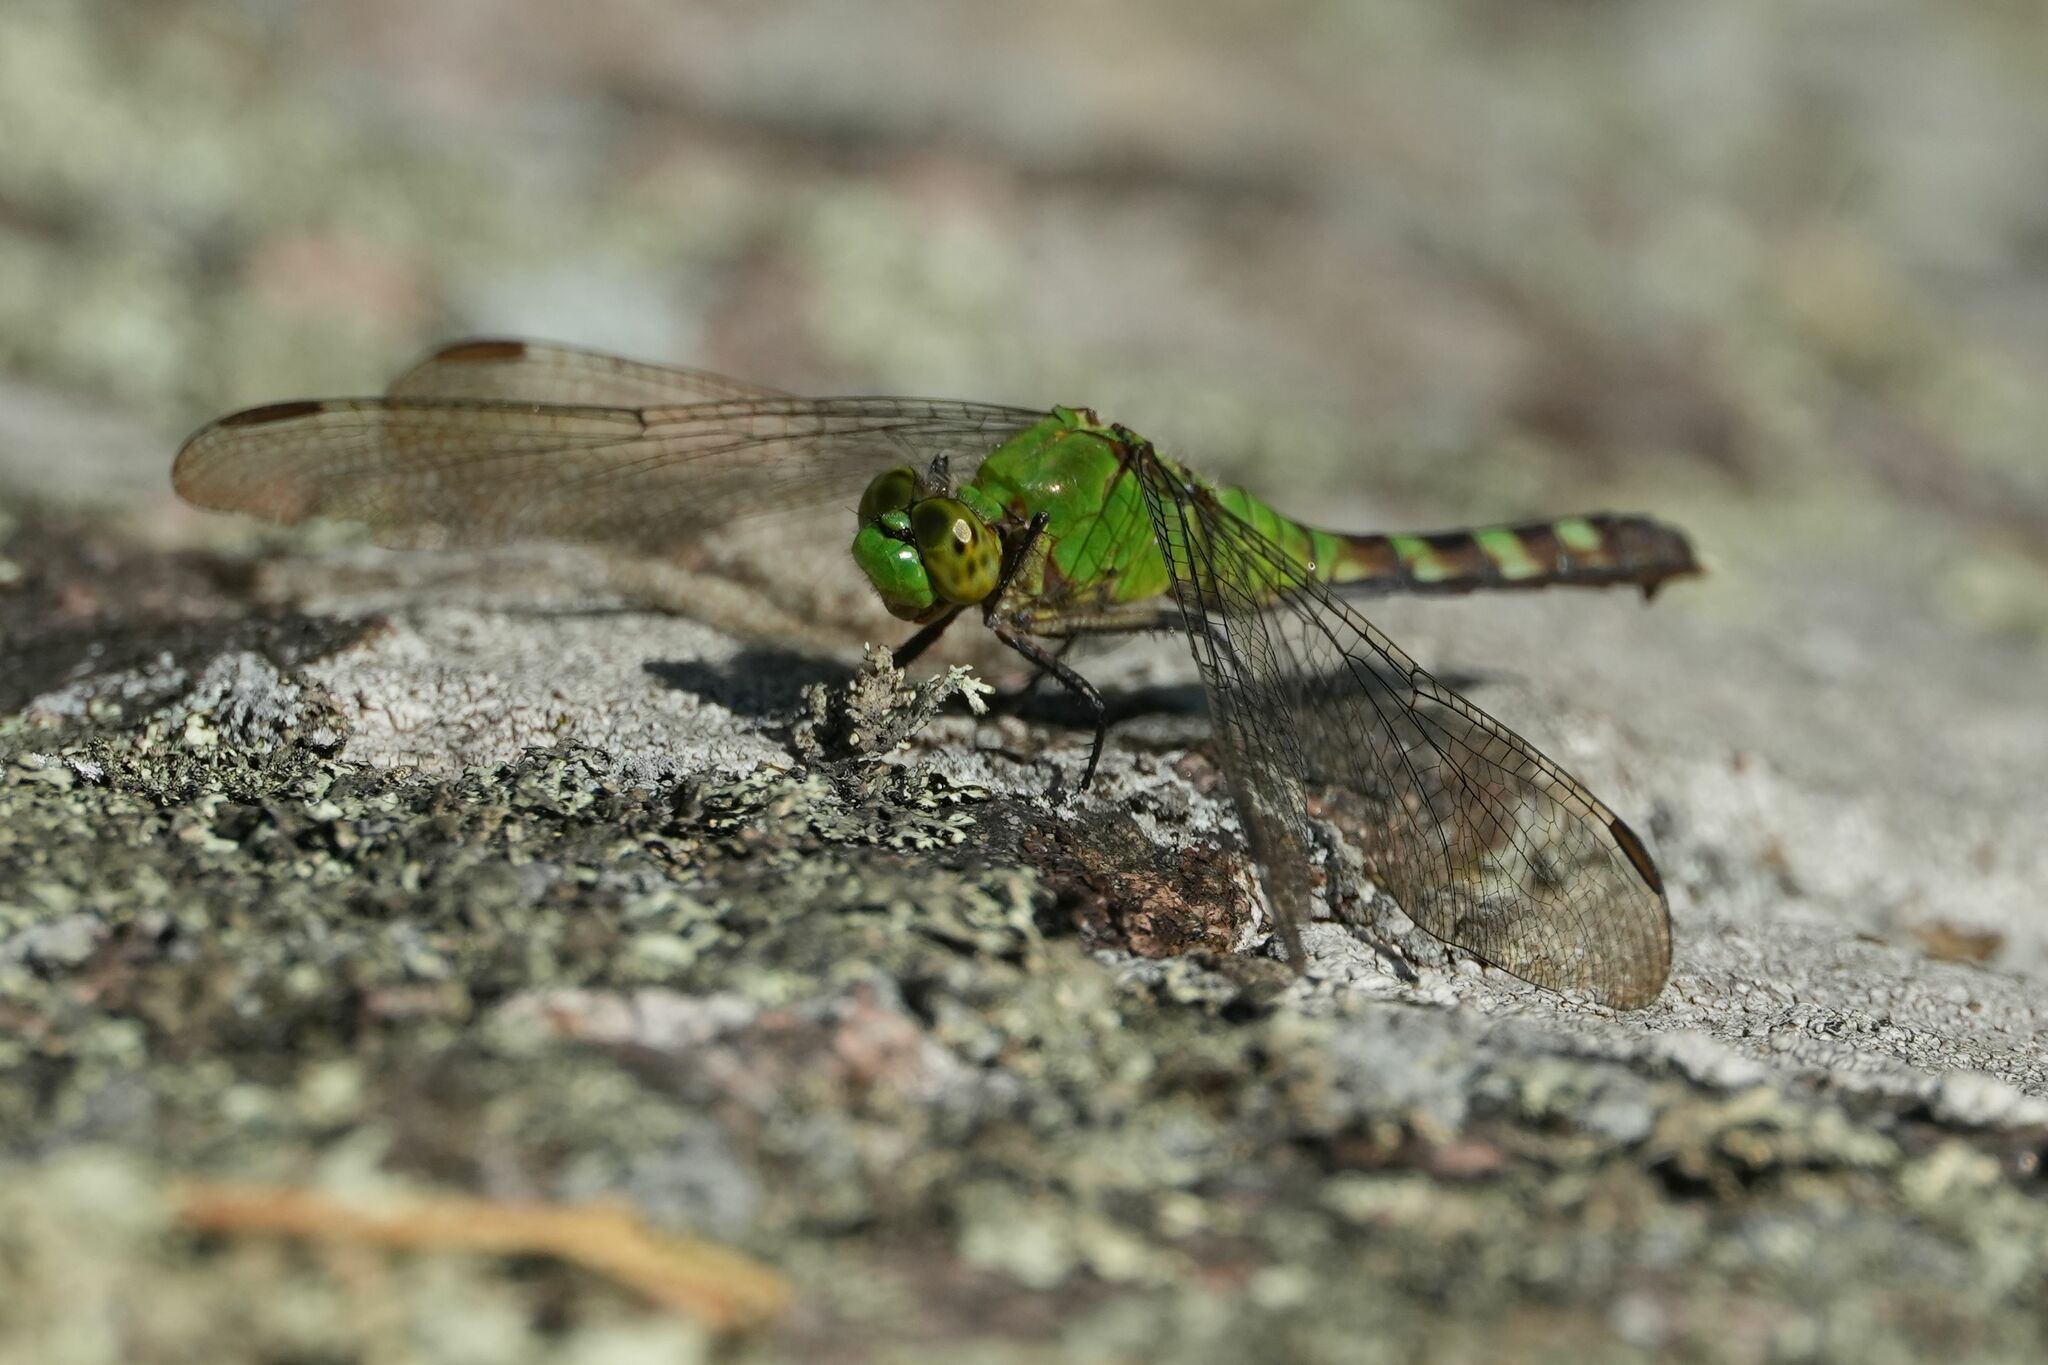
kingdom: Animalia
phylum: Arthropoda
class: Insecta
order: Odonata
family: Libellulidae
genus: Erythemis
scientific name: Erythemis simplicicollis
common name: Eastern pondhawk
